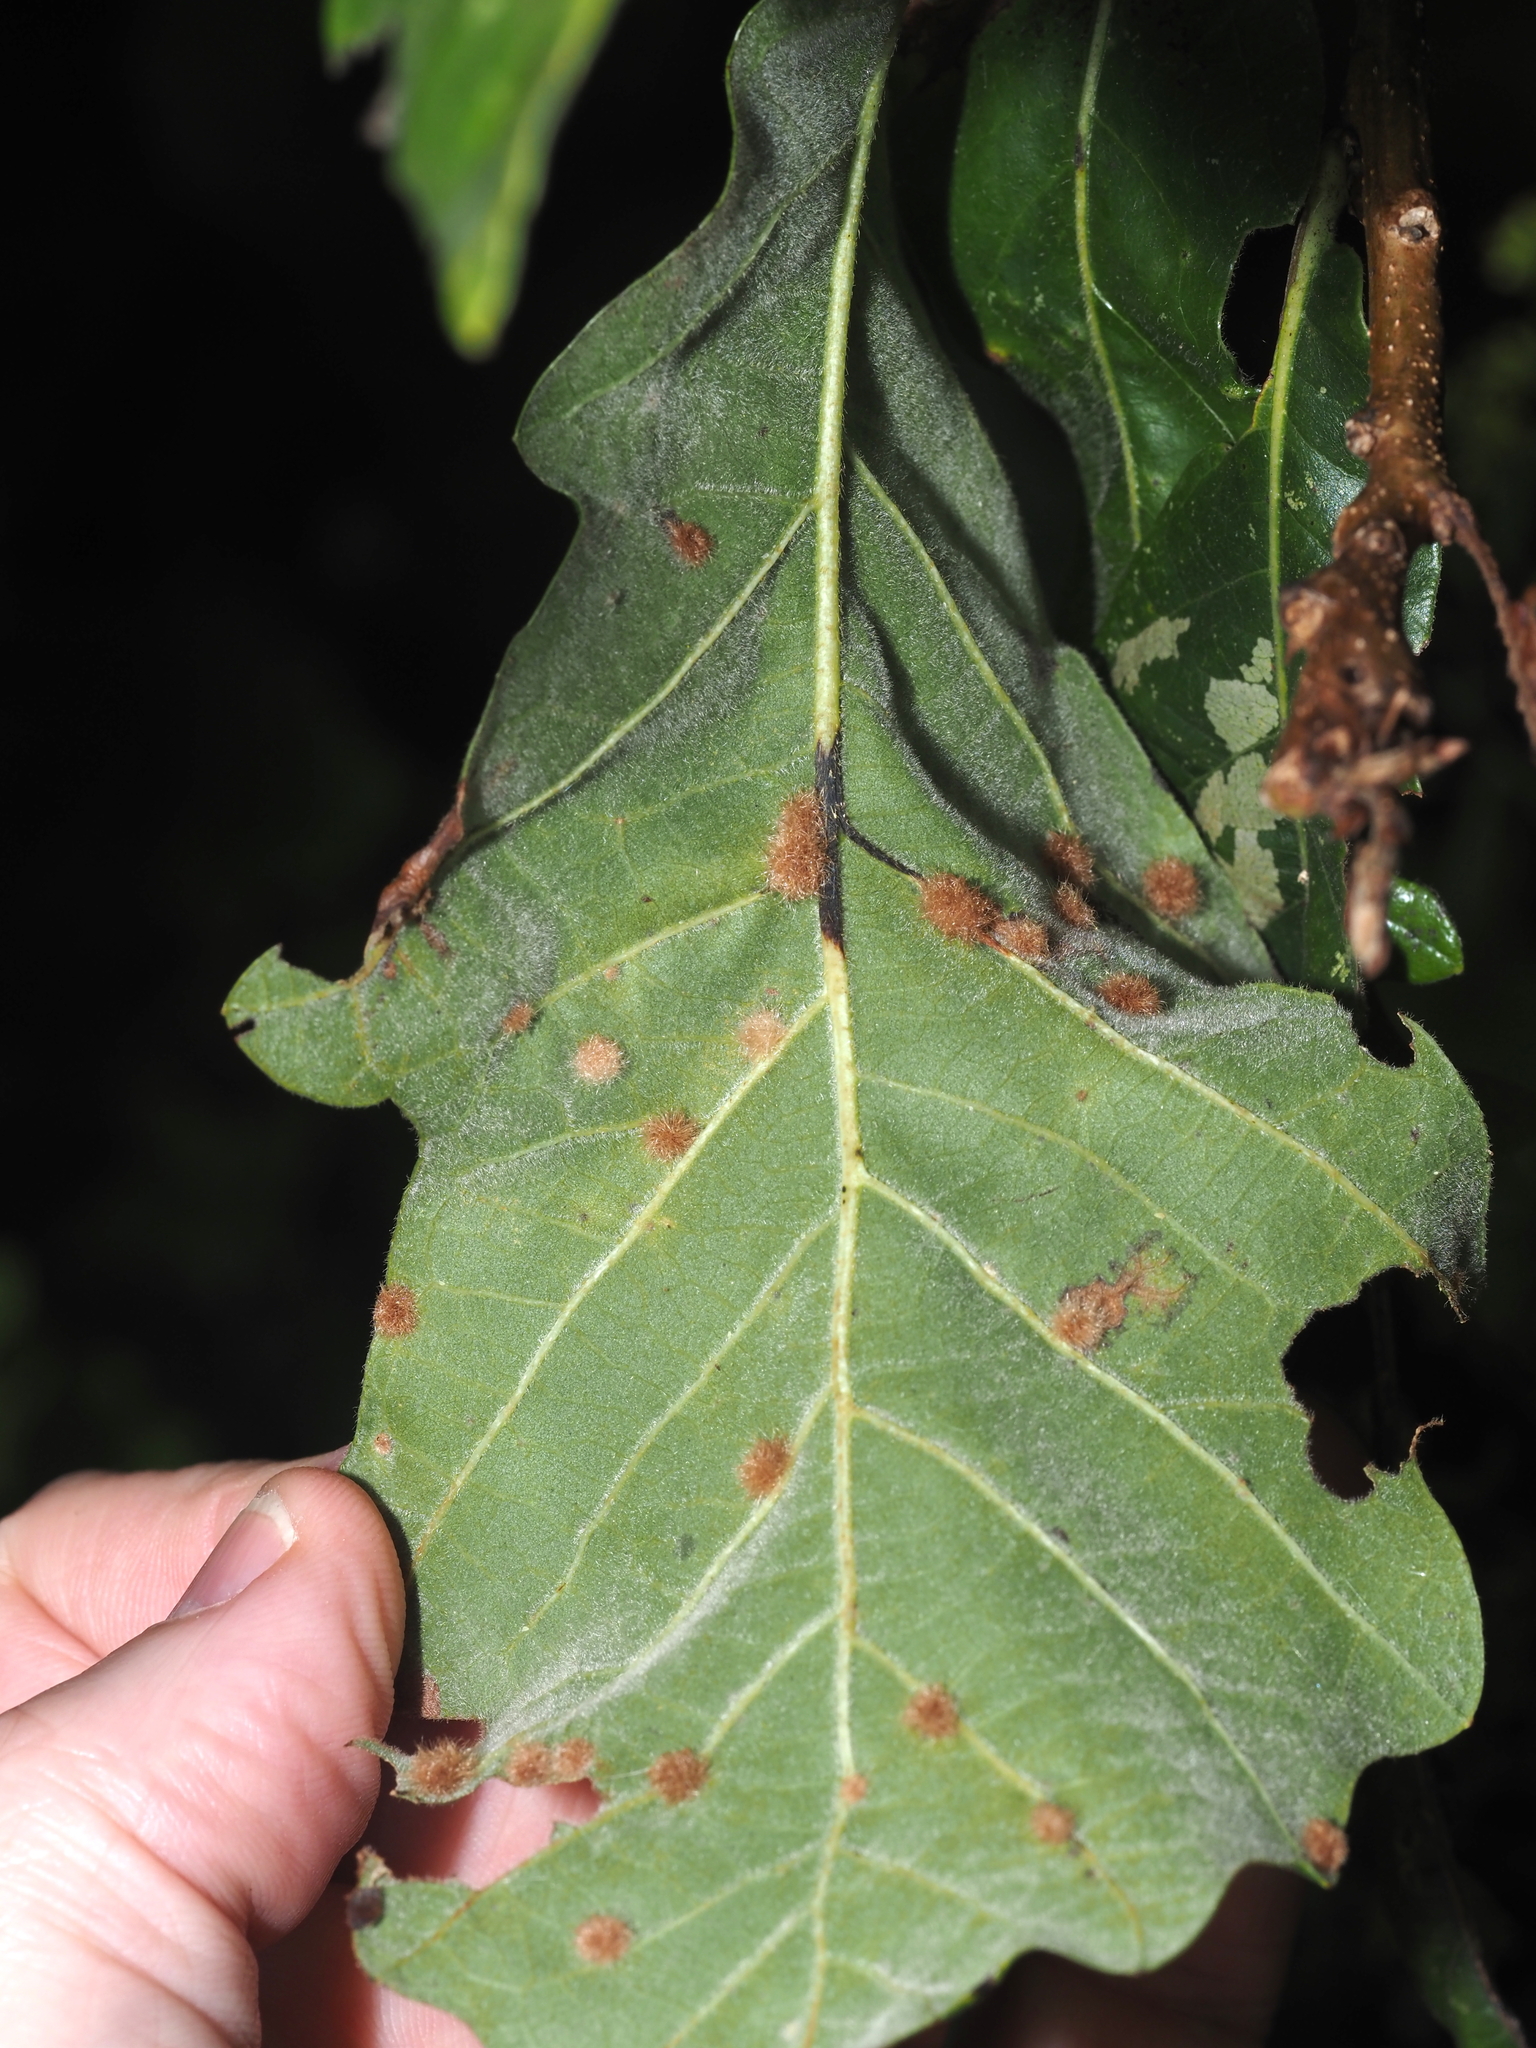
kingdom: Animalia
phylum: Arthropoda
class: Insecta
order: Hymenoptera
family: Cynipidae
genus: Neuroterus
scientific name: Neuroterus floccosus
